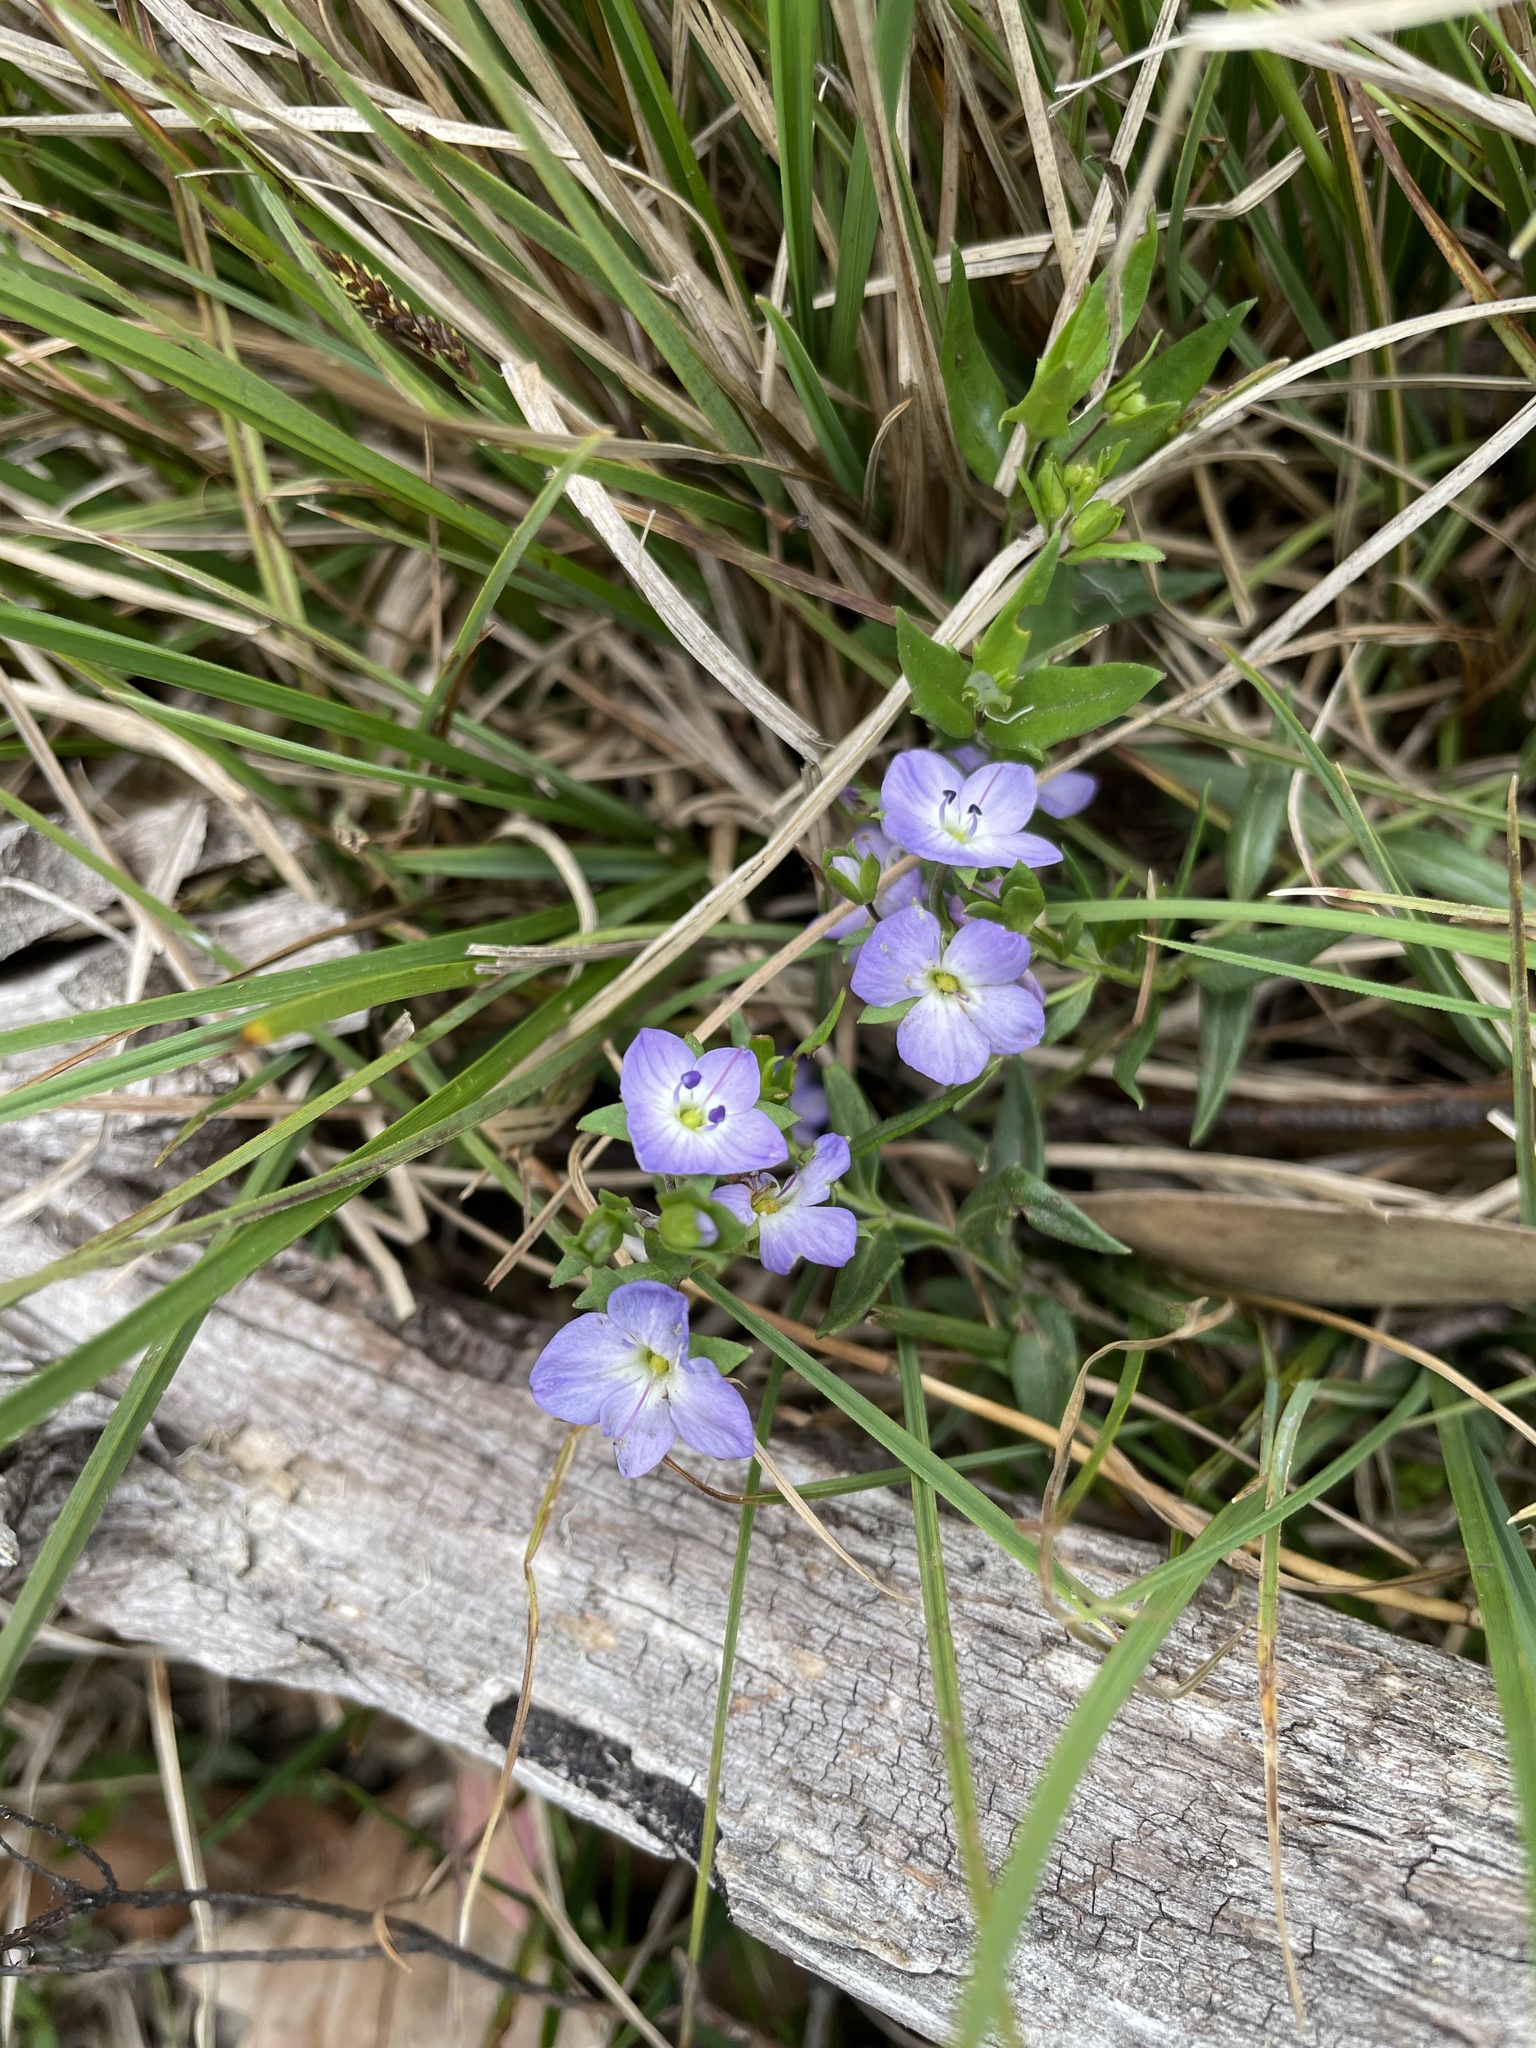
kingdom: Plantae
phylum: Tracheophyta
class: Magnoliopsida
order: Lamiales
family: Plantaginaceae
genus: Veronica
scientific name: Veronica gracilis
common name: Slender speedwell
